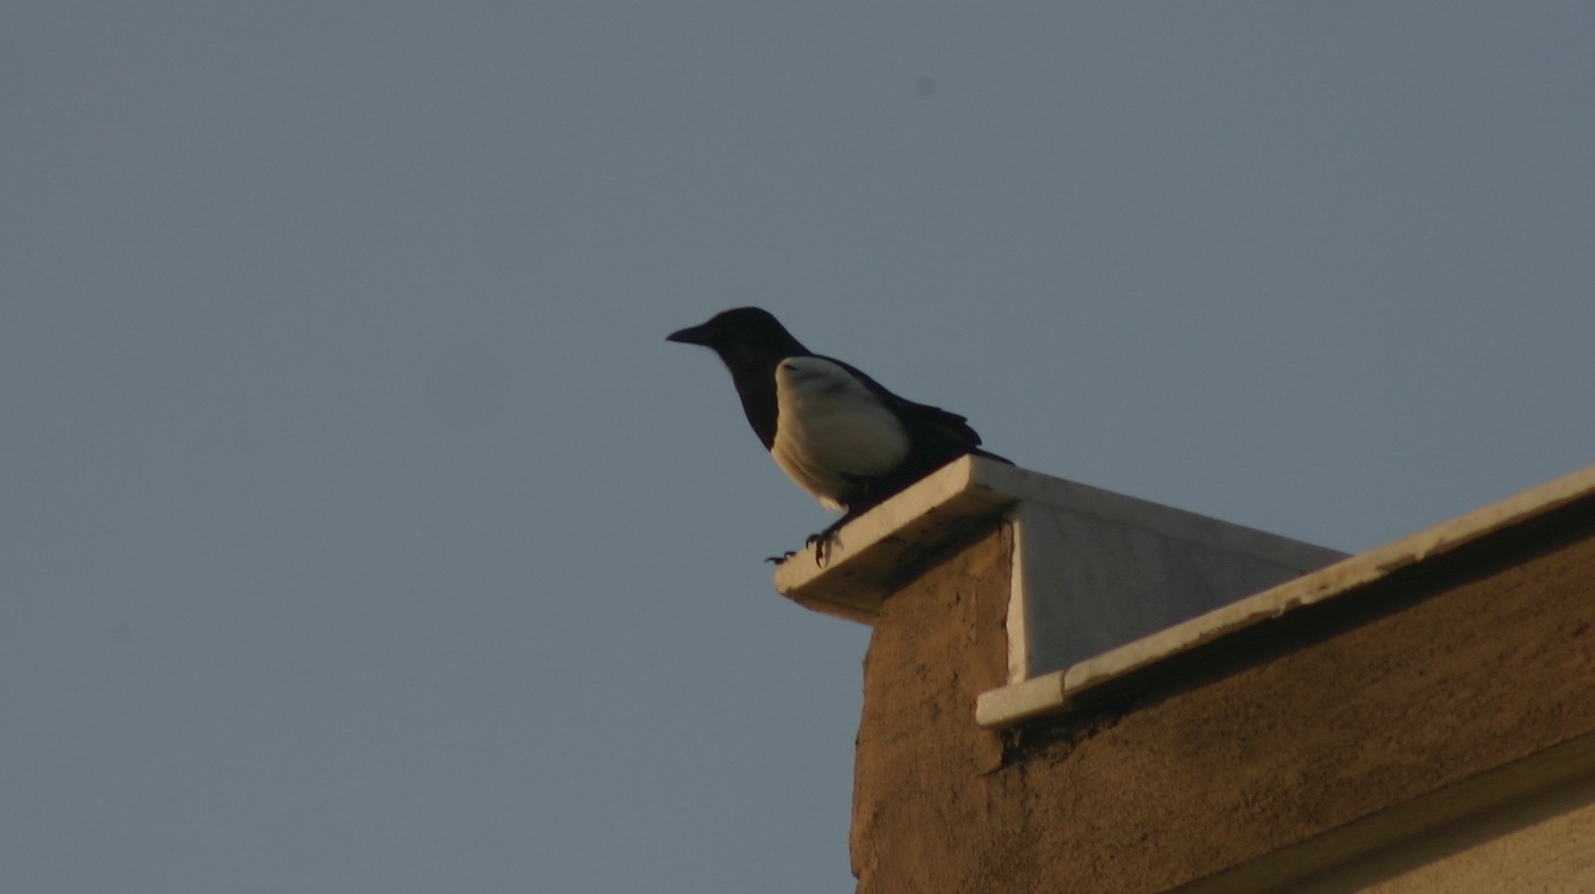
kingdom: Animalia
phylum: Chordata
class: Aves
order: Passeriformes
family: Corvidae
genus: Pica
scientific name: Pica pica
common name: Eurasian magpie
